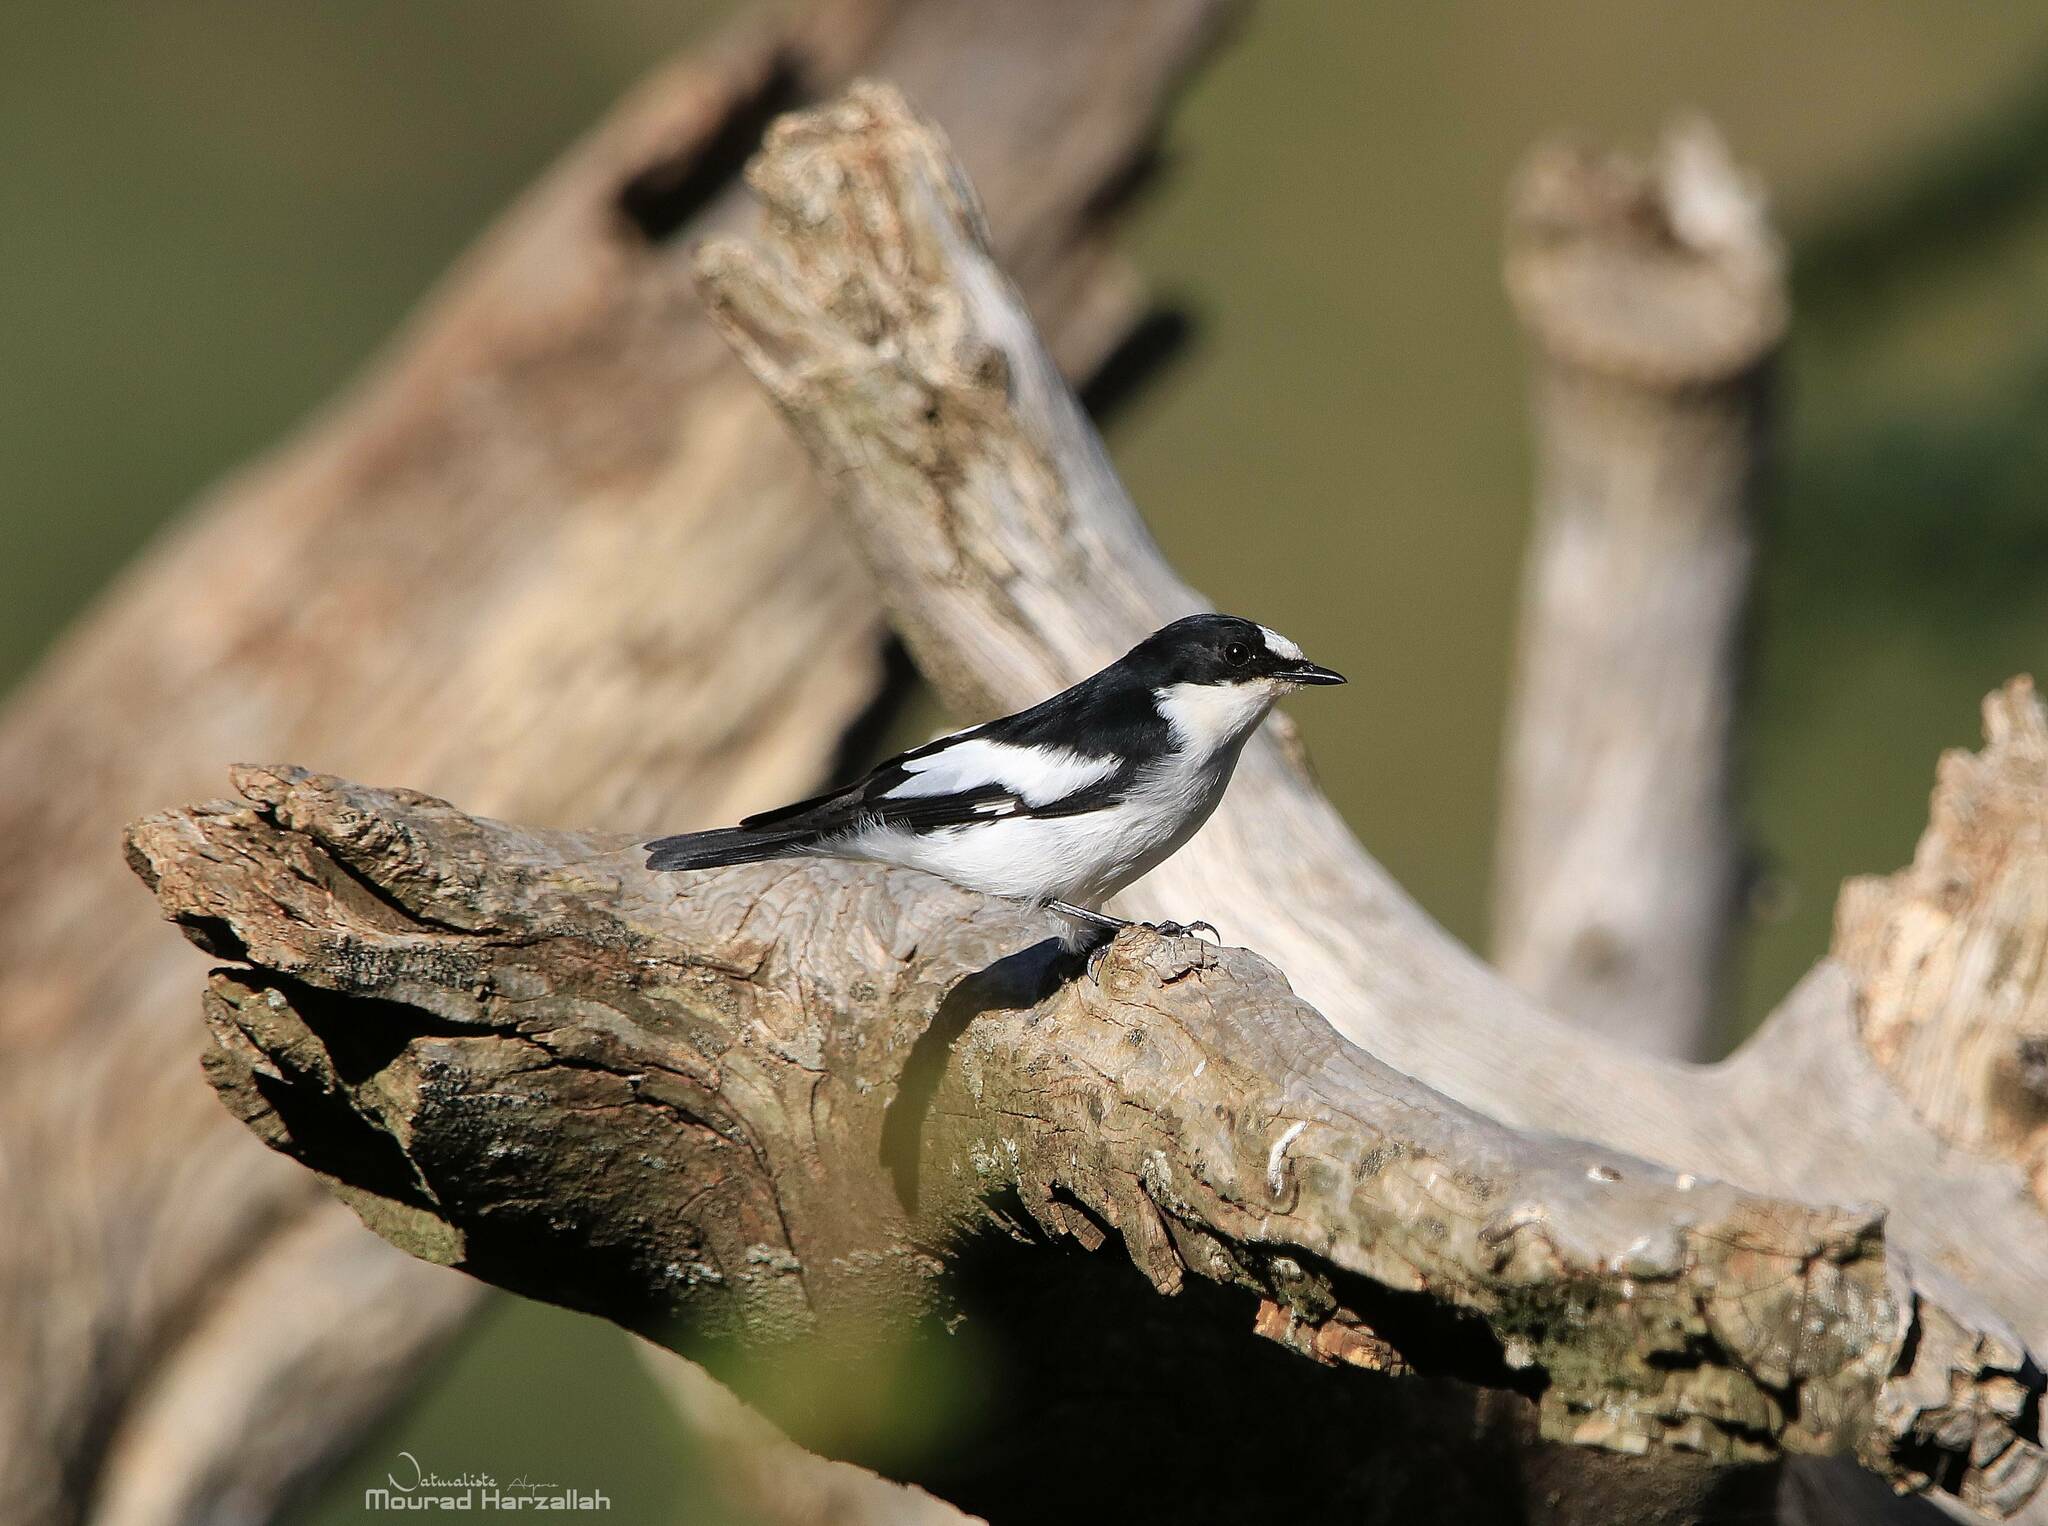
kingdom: Animalia
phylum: Chordata
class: Aves
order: Passeriformes
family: Muscicapidae
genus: Ficedula
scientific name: Ficedula speculigera
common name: Atlas pied flycatcher
